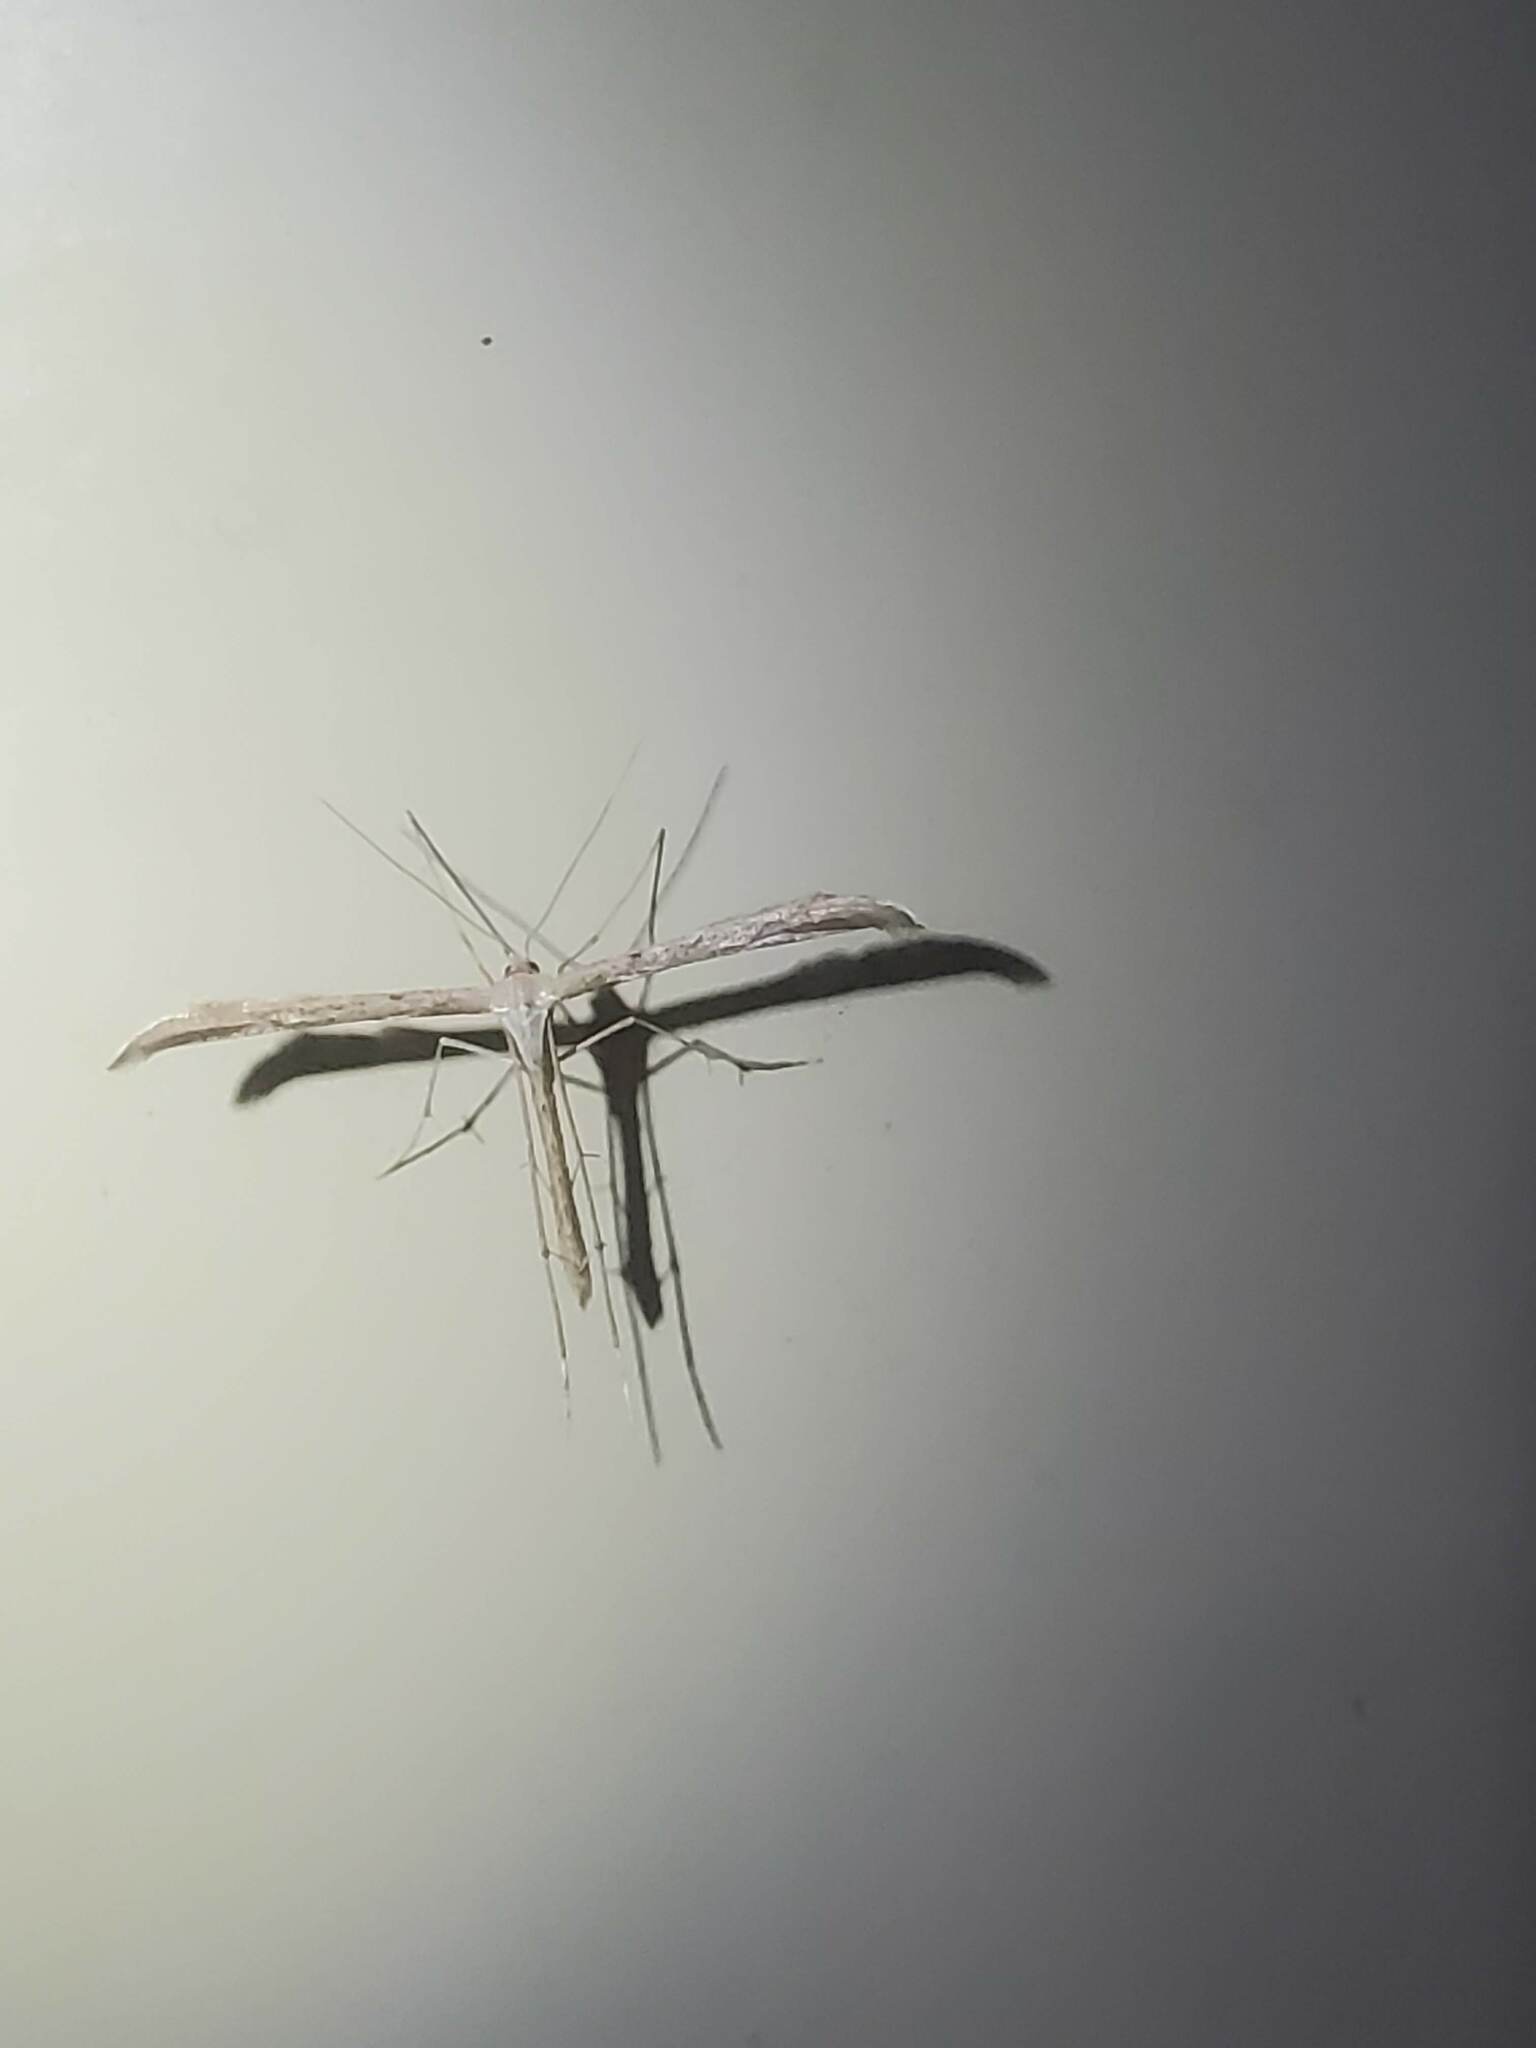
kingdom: Animalia
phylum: Arthropoda
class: Insecta
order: Lepidoptera
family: Pterophoridae
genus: Emmelina
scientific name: Emmelina monodactyla
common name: Common plume
